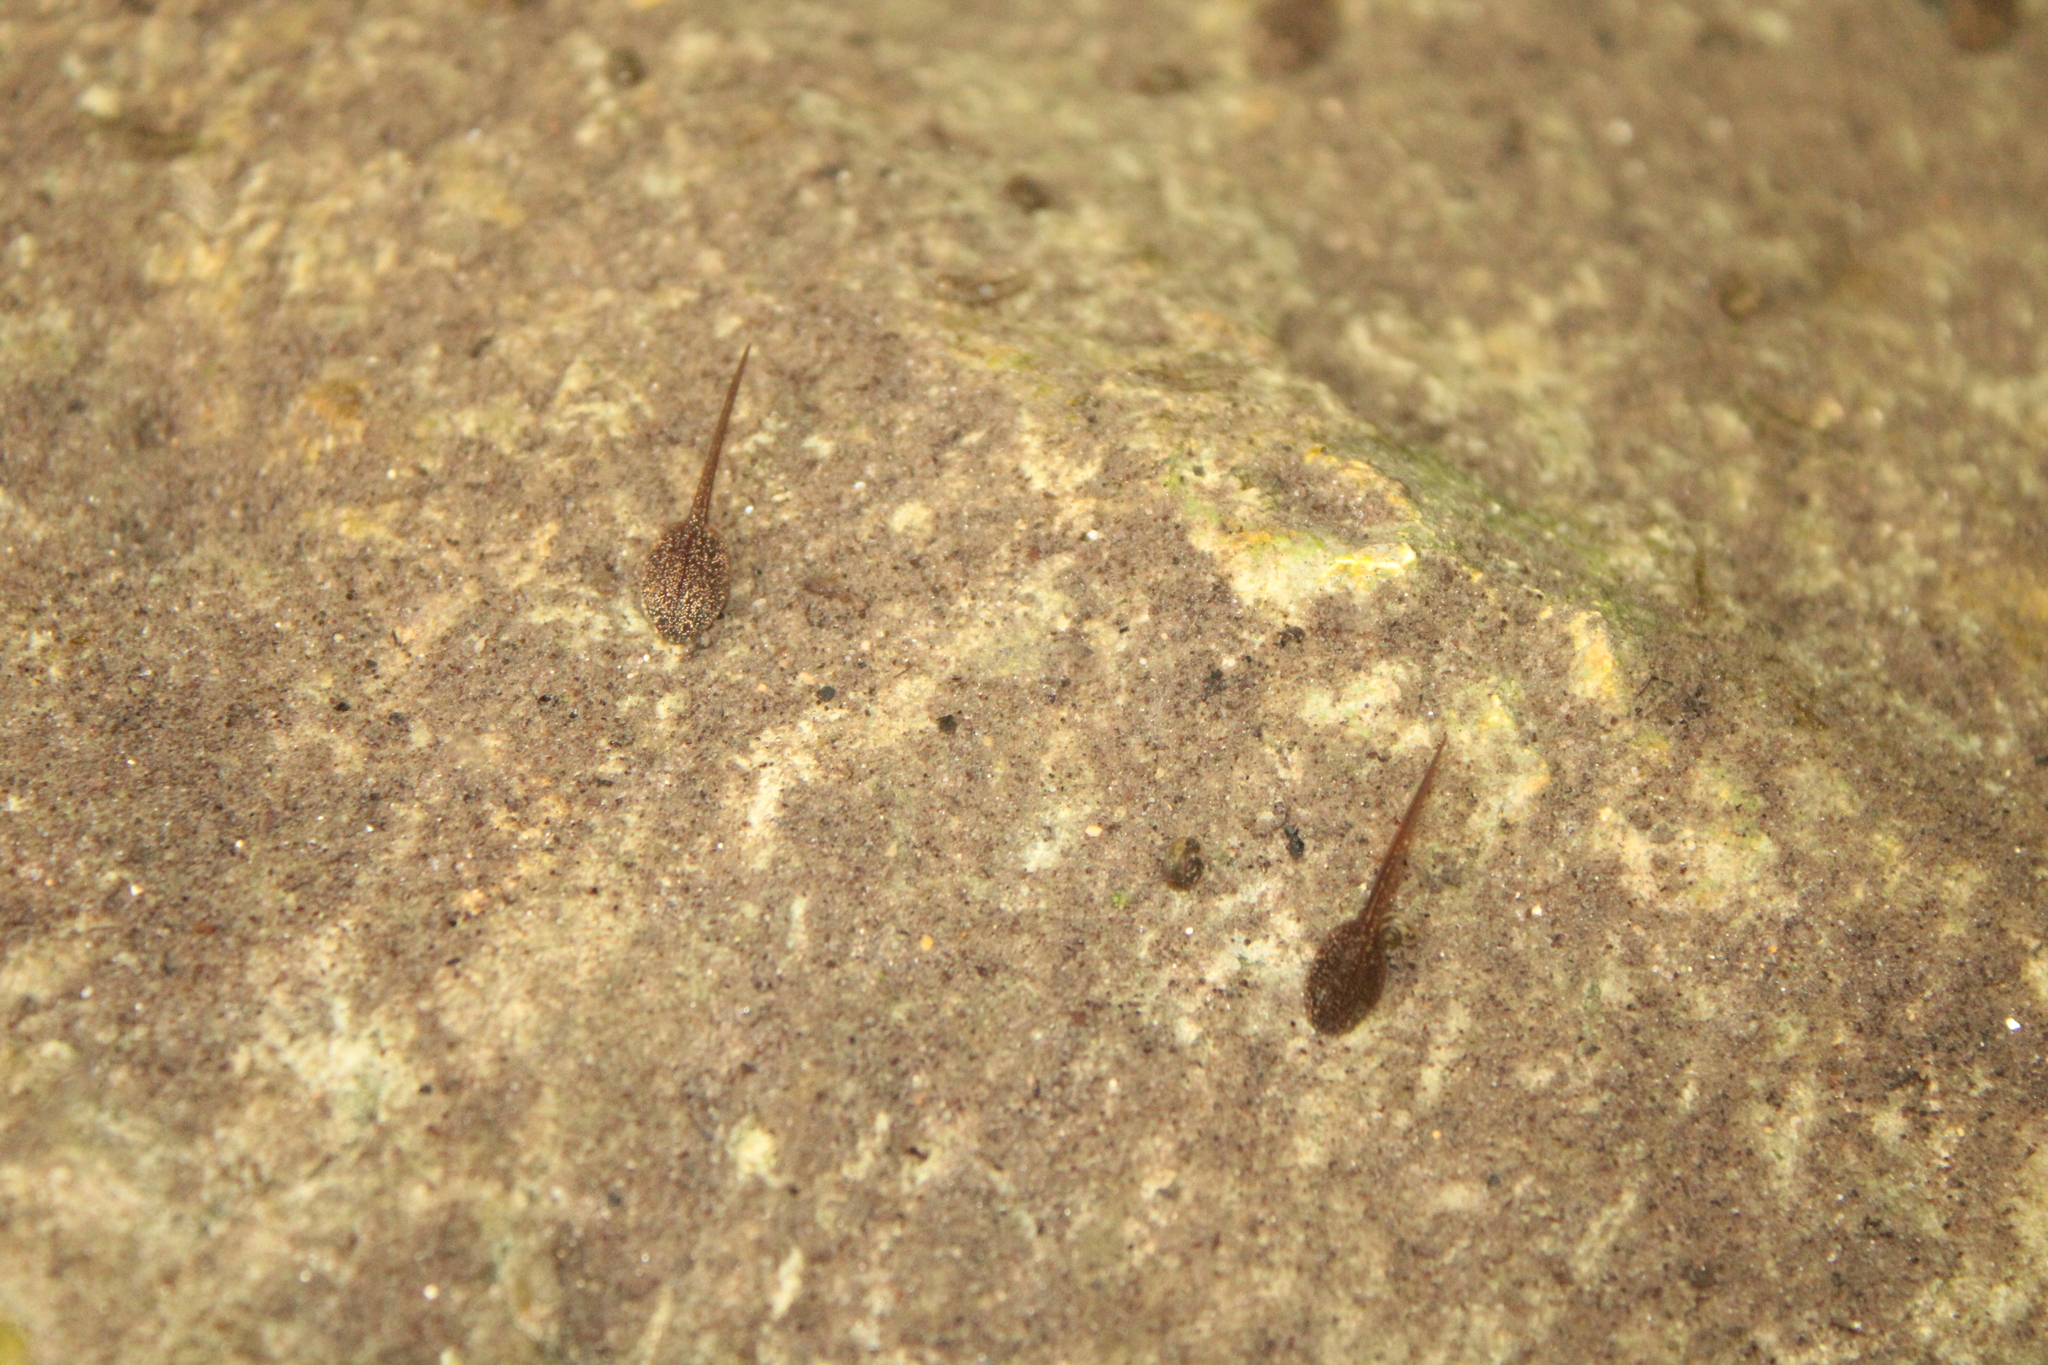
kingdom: Animalia
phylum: Chordata
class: Amphibia
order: Anura
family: Ranidae
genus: Rana
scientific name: Rana temporaria
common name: Common frog
